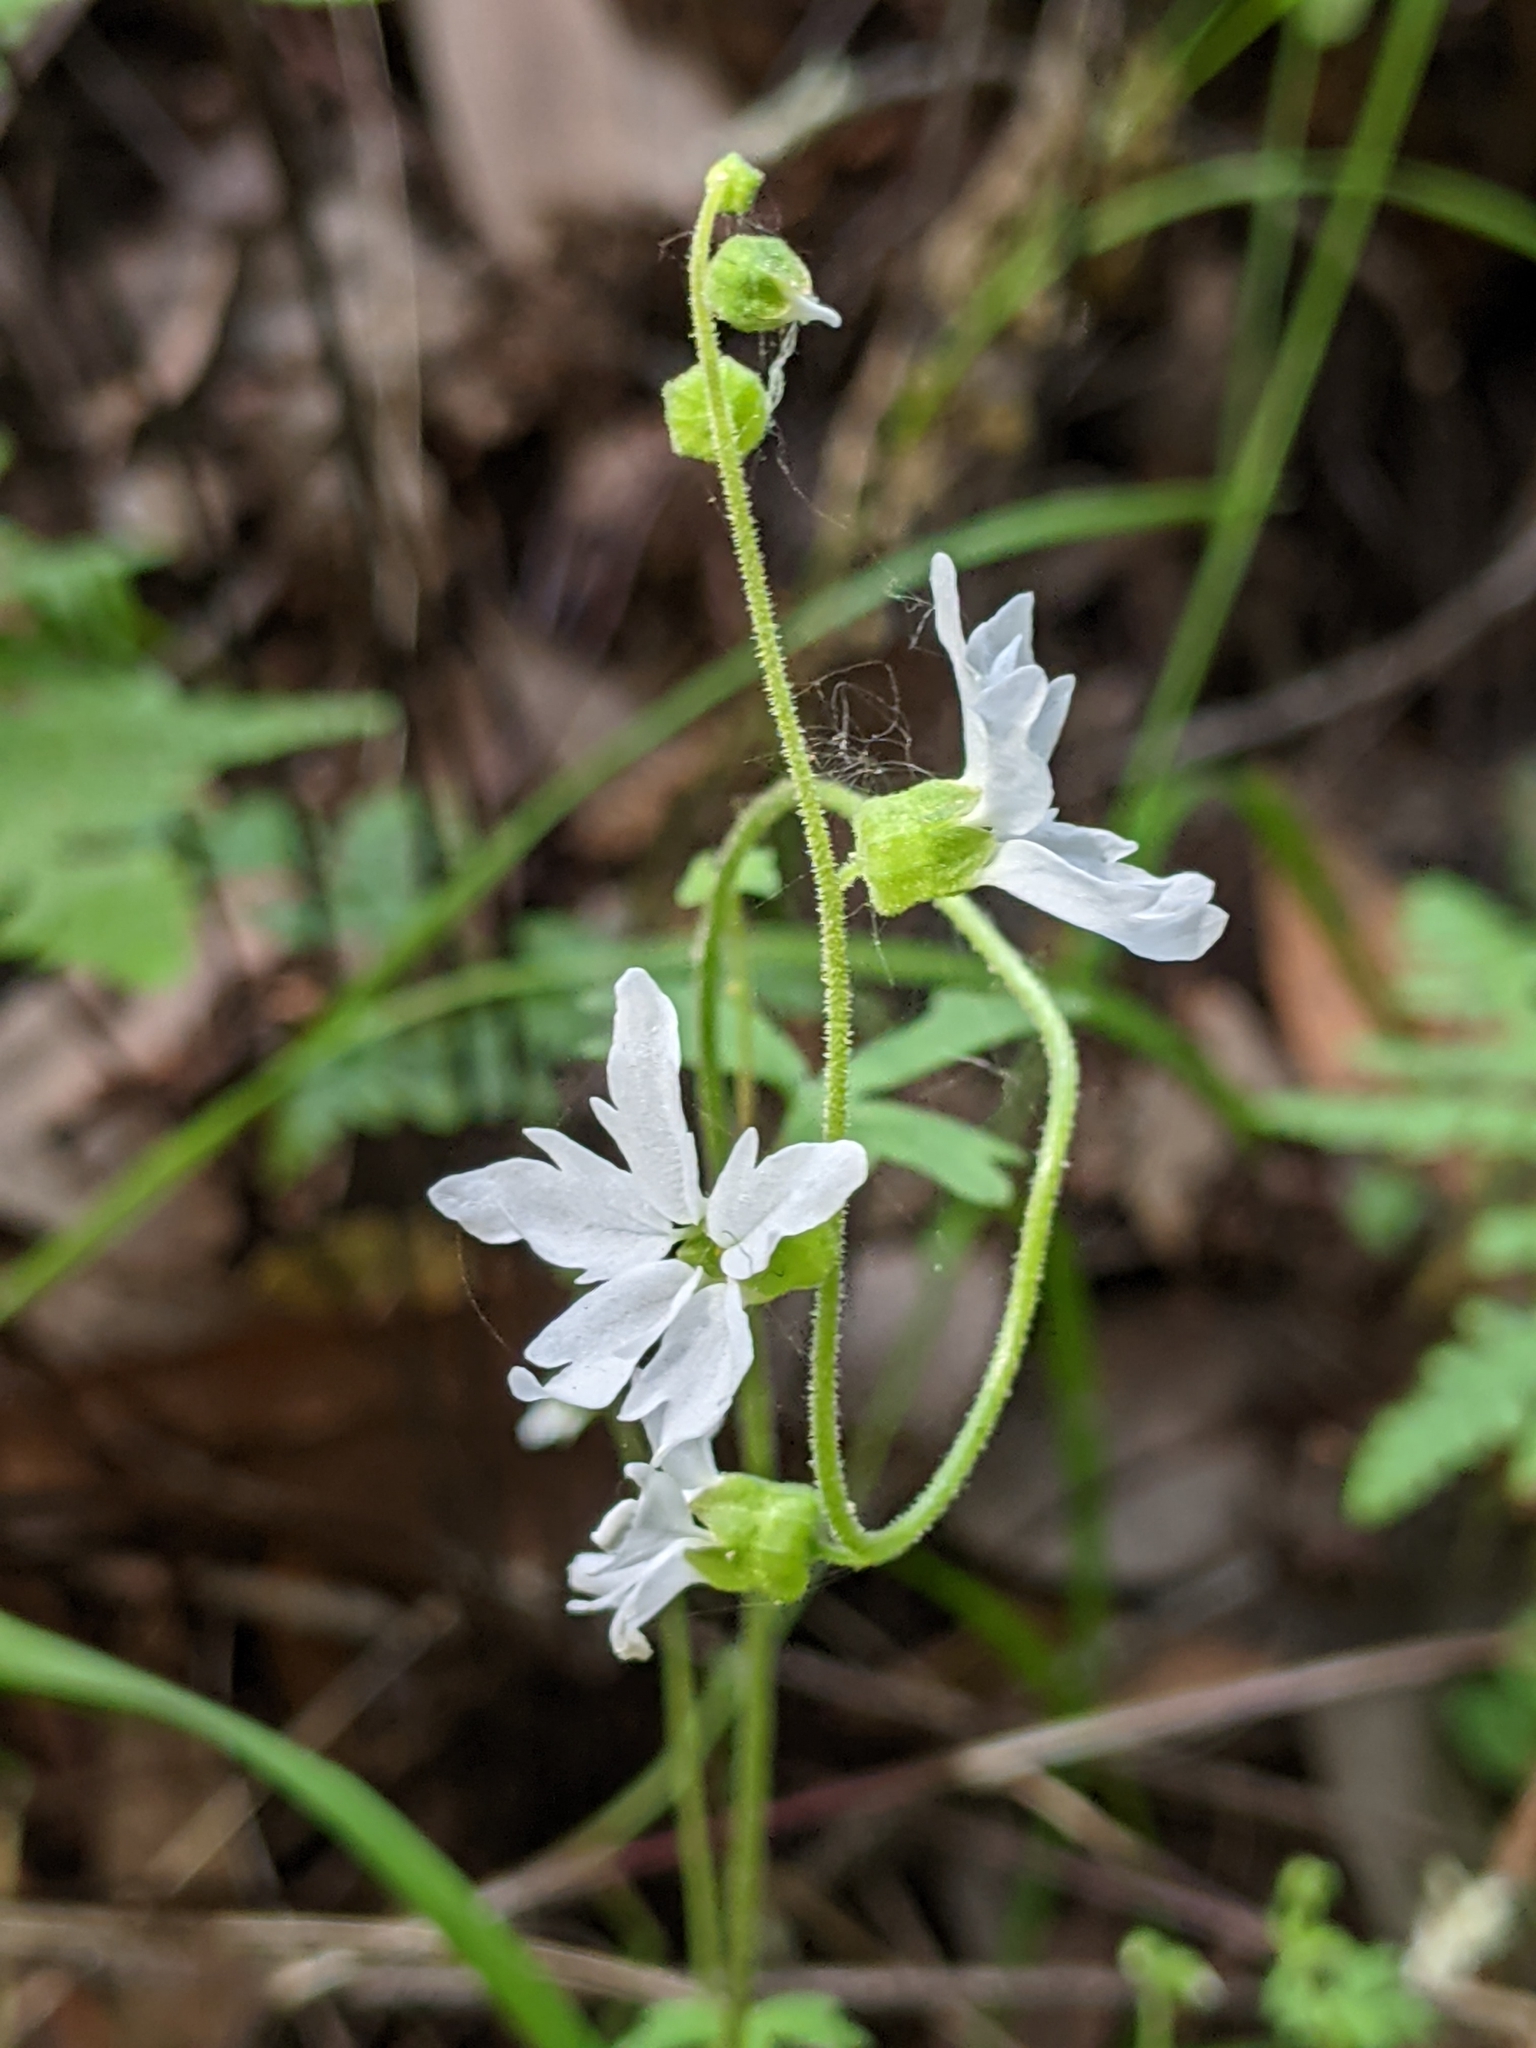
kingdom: Plantae
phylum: Tracheophyta
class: Magnoliopsida
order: Saxifragales
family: Saxifragaceae
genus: Lithophragma
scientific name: Lithophragma heterophyllum
